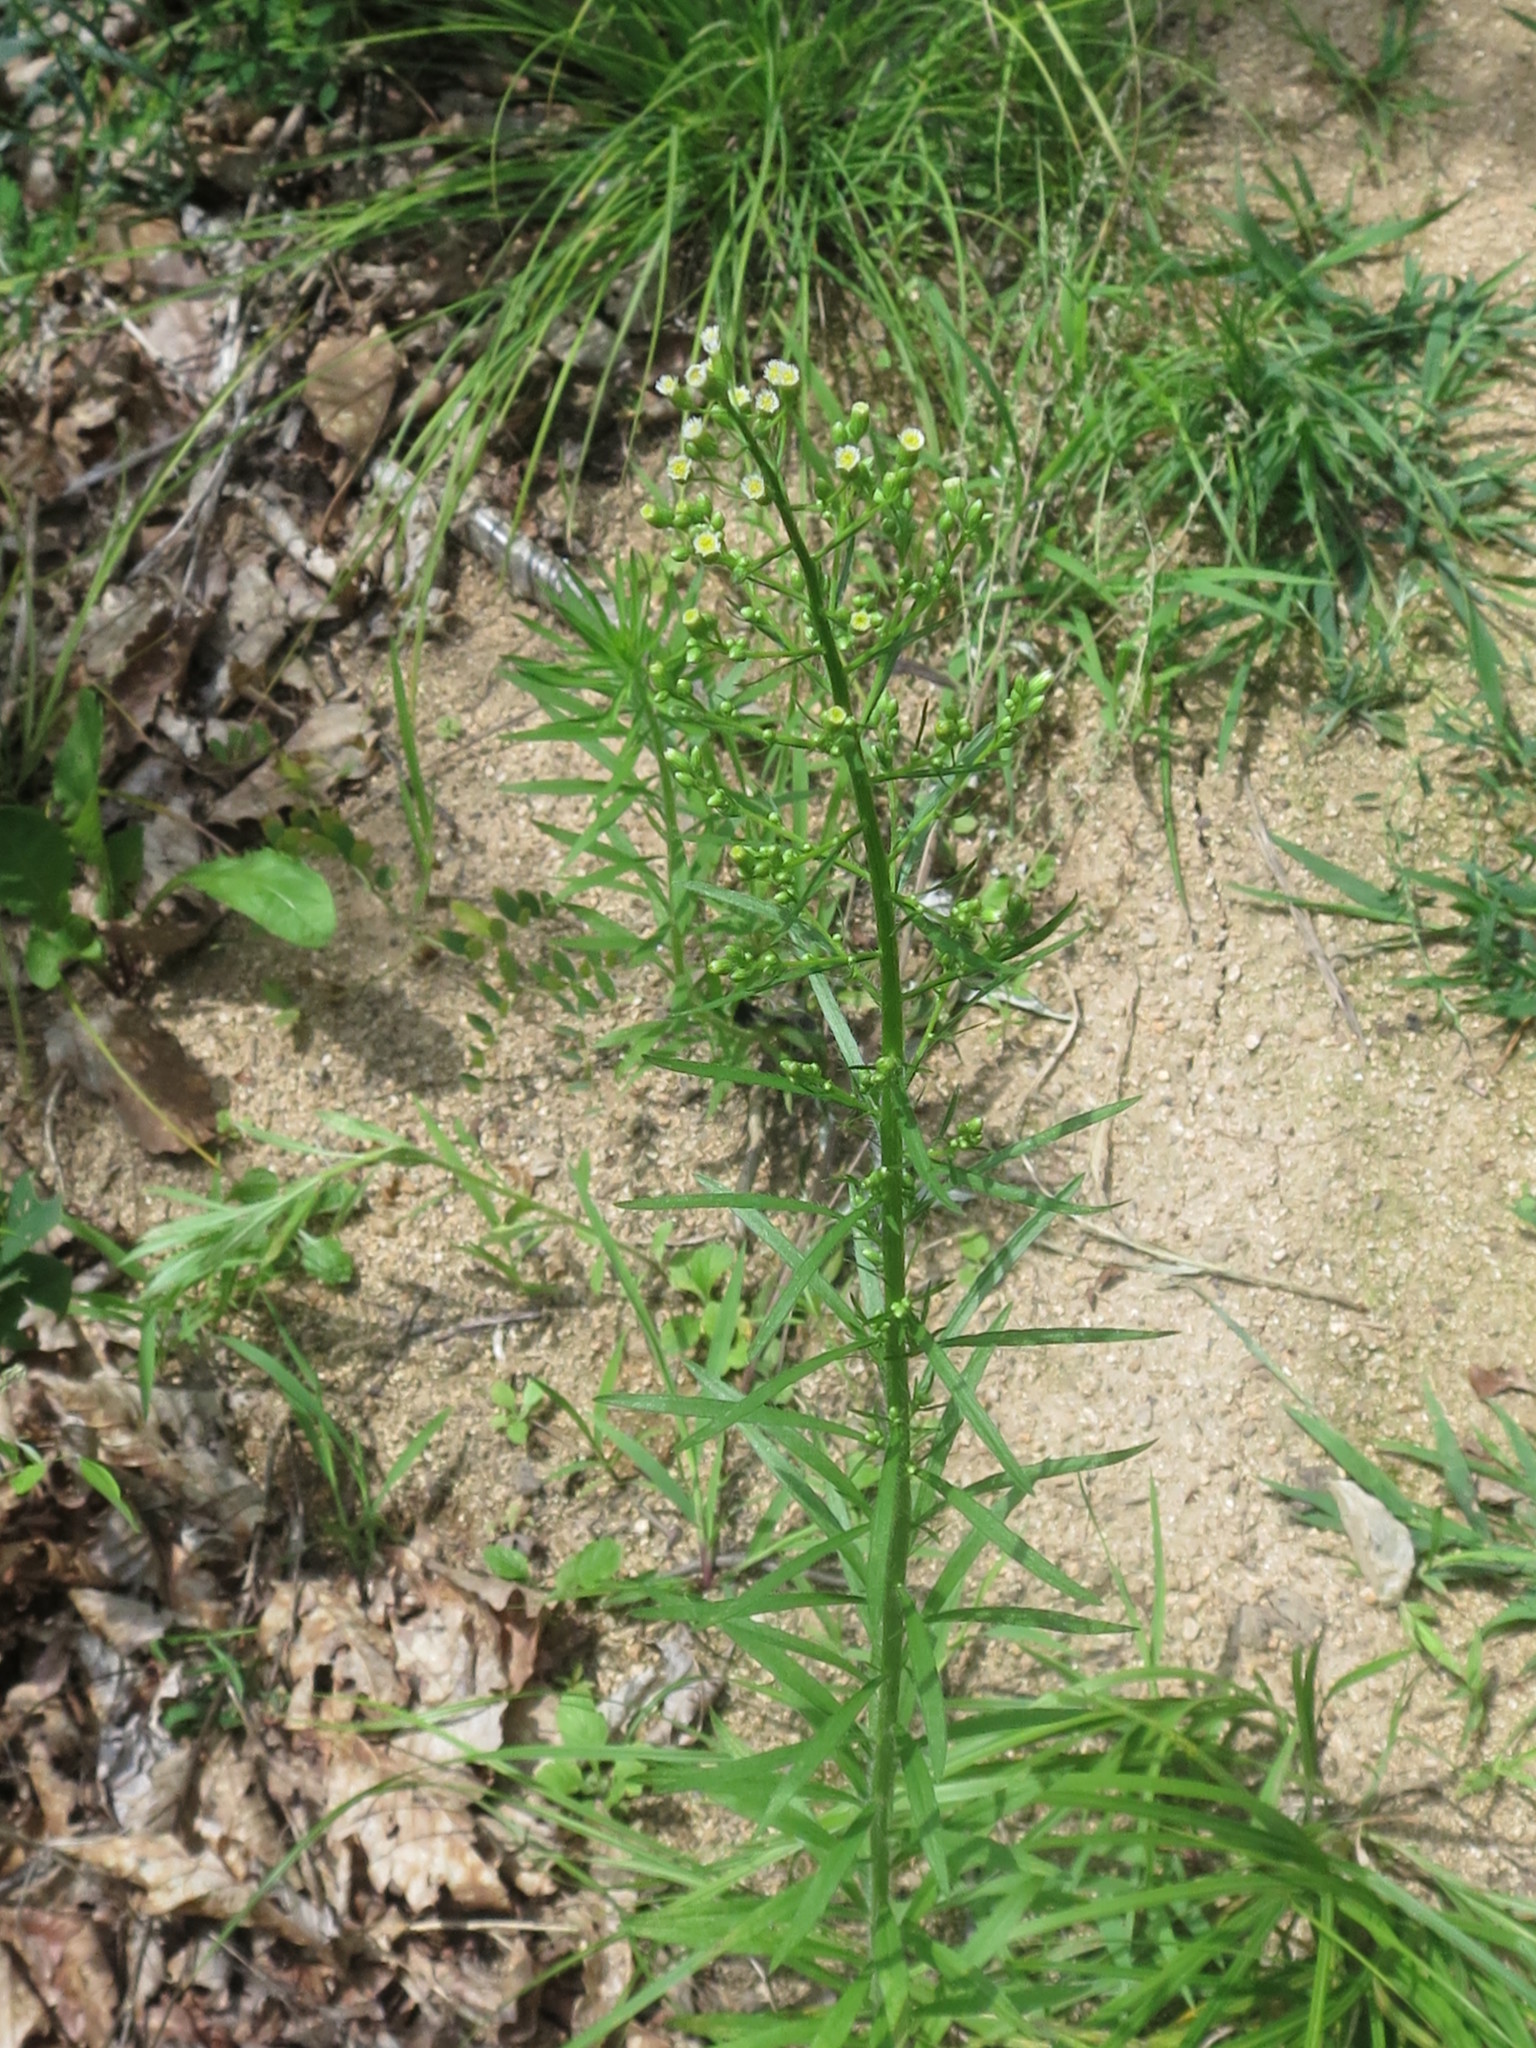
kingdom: Plantae
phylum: Tracheophyta
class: Magnoliopsida
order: Asterales
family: Asteraceae
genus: Erigeron
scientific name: Erigeron canadensis
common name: Canadian fleabane
